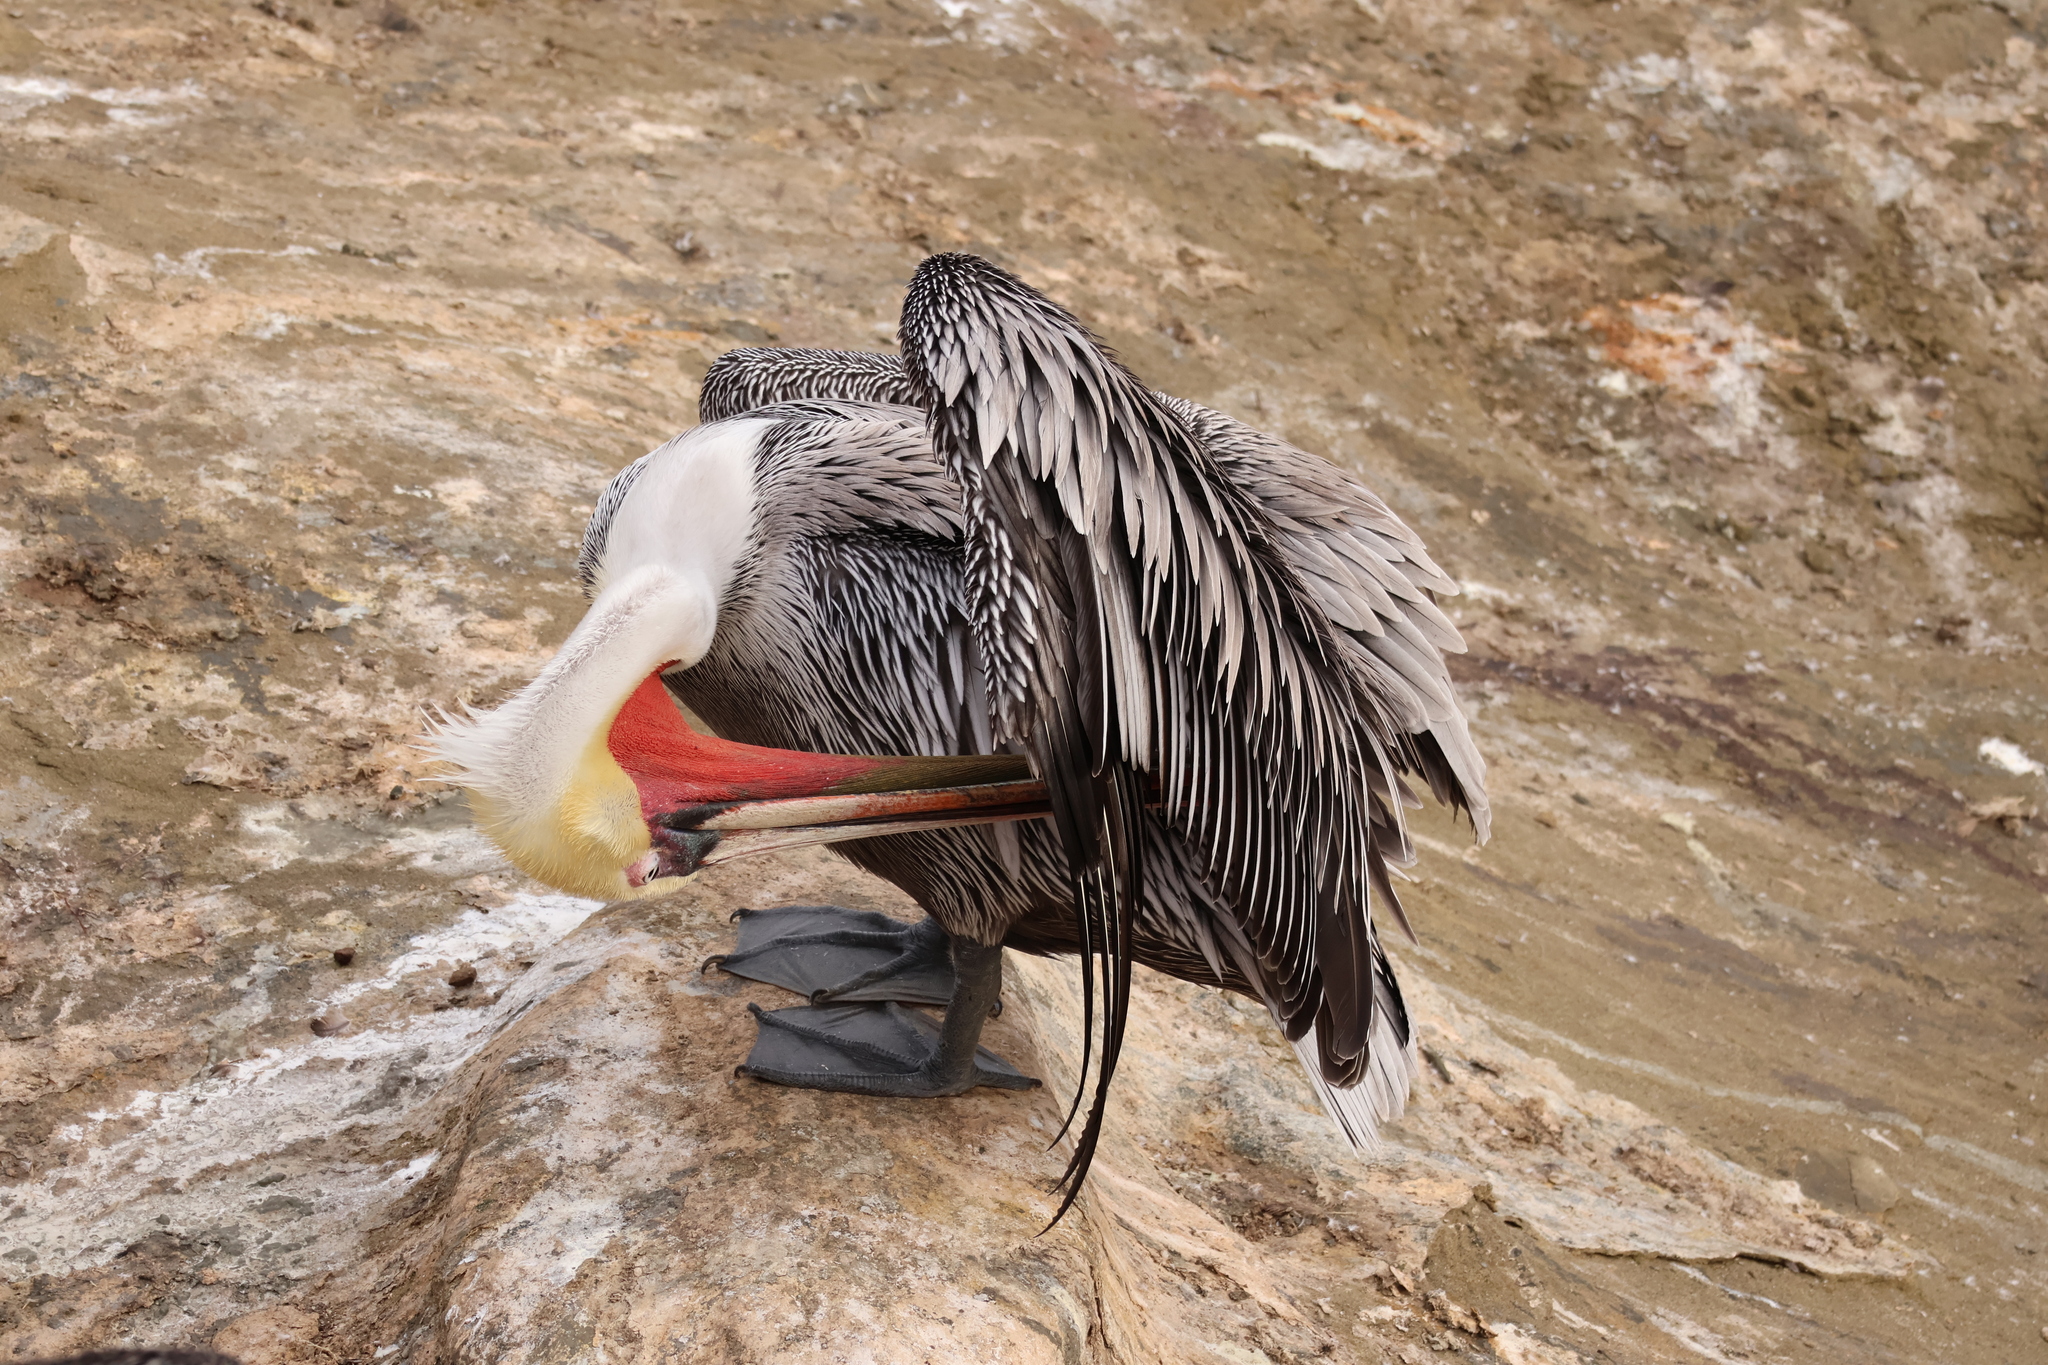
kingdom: Animalia
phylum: Chordata
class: Aves
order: Pelecaniformes
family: Pelecanidae
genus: Pelecanus
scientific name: Pelecanus occidentalis
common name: Brown pelican
